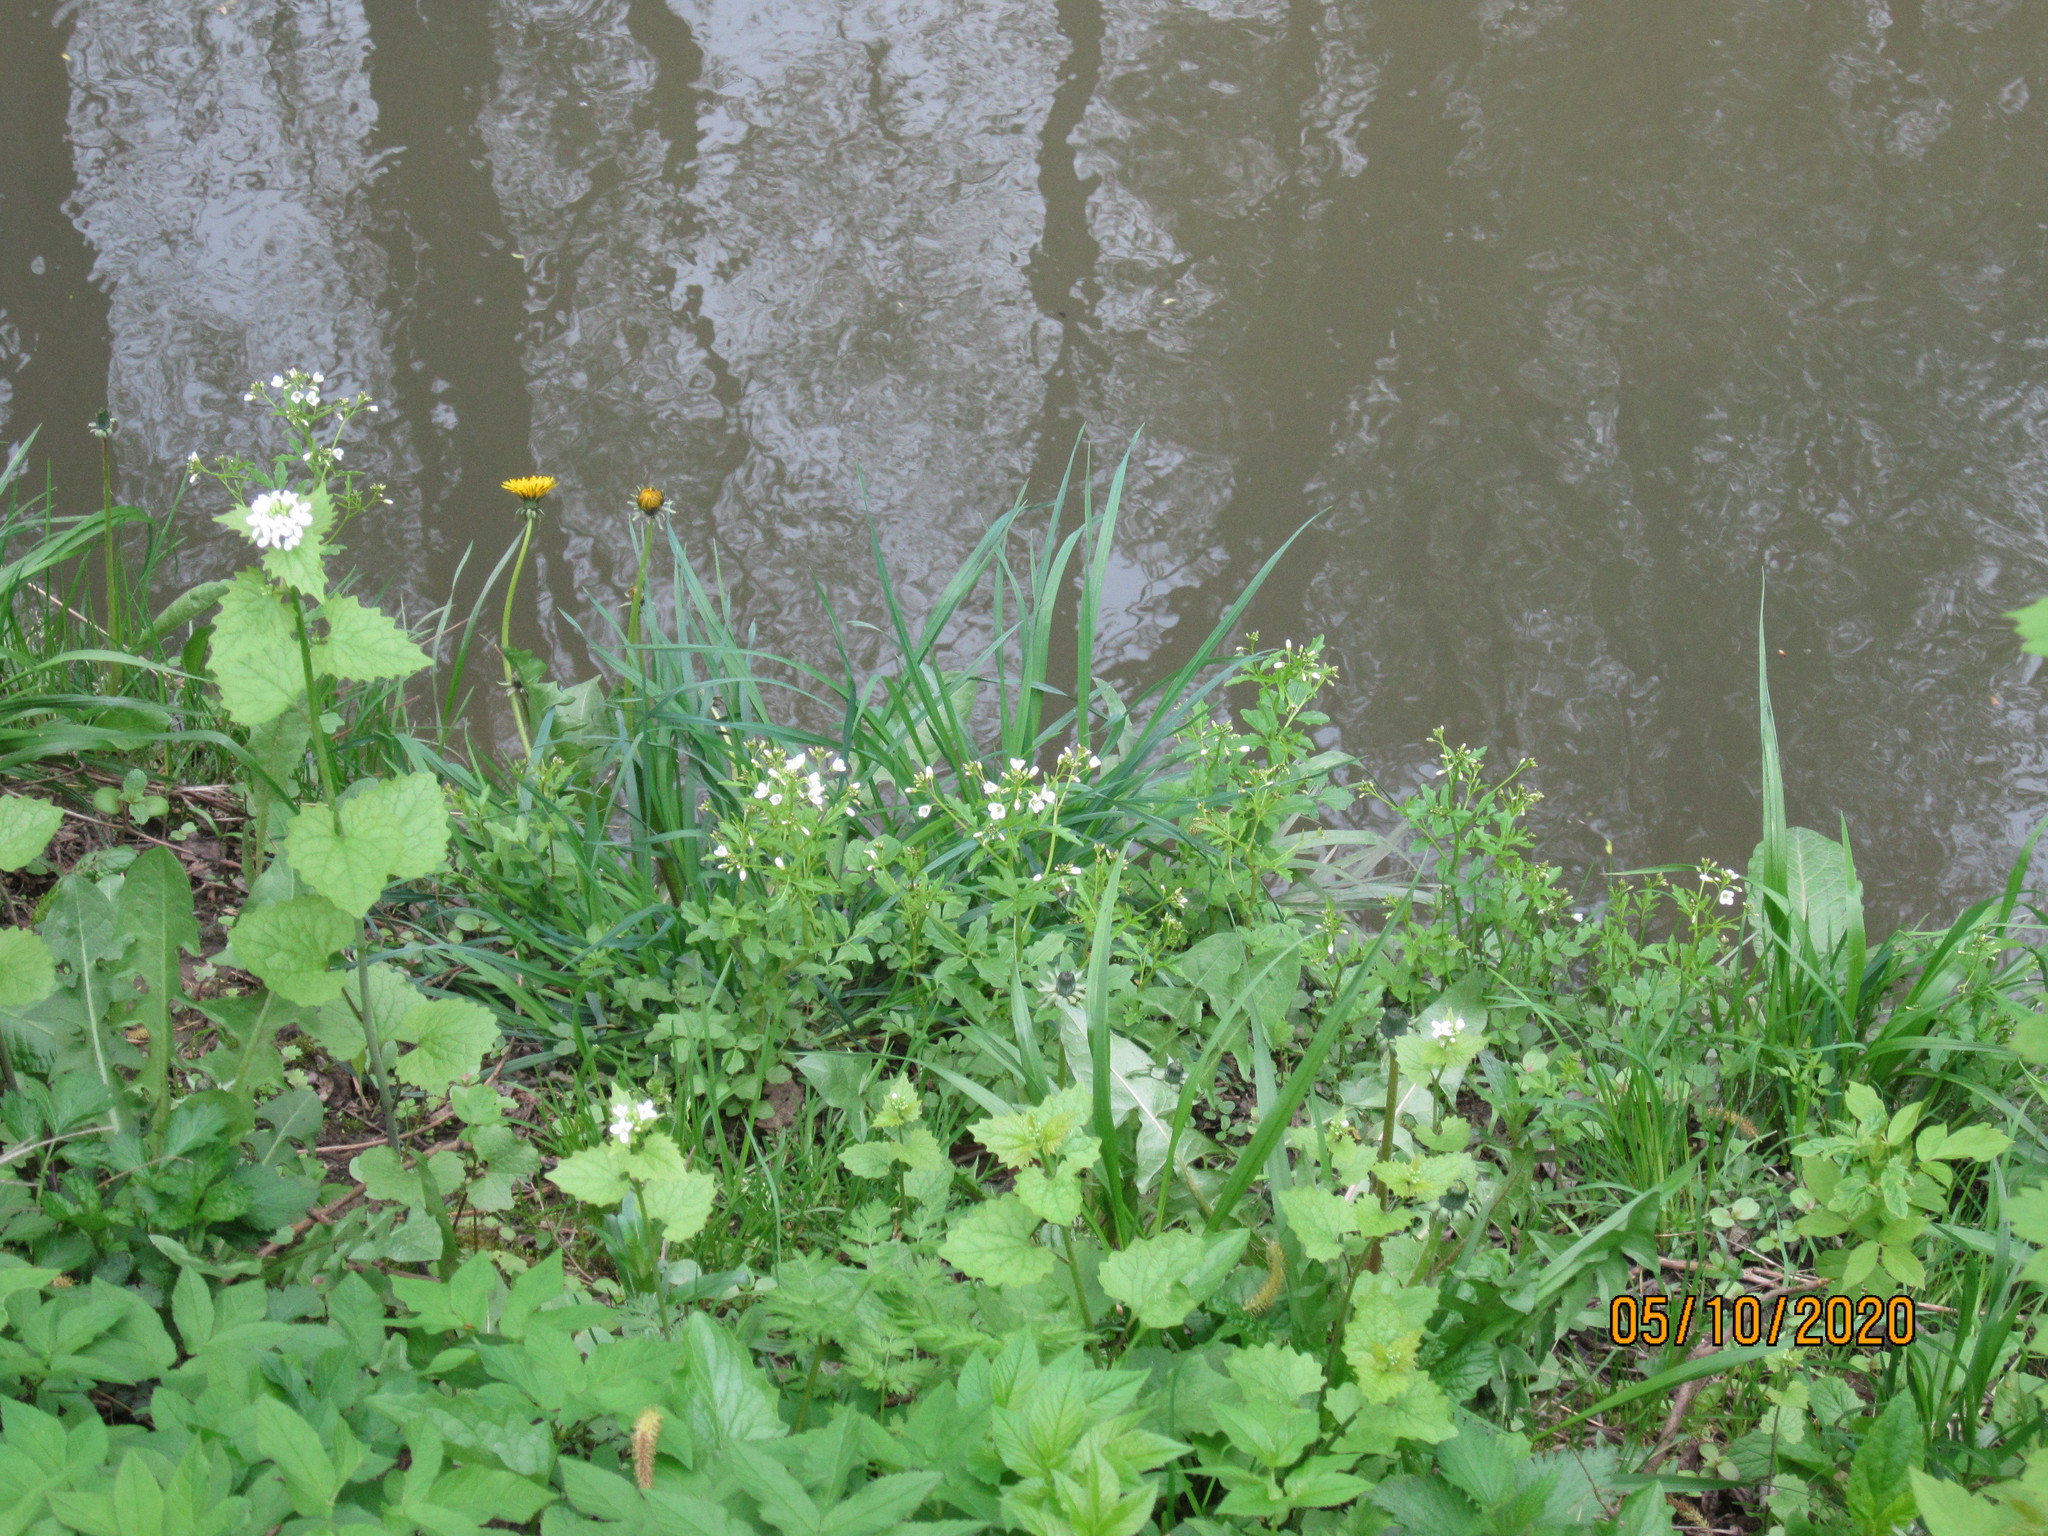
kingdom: Plantae
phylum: Tracheophyta
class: Magnoliopsida
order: Brassicales
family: Brassicaceae
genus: Cardamine
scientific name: Cardamine amara
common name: Large bitter-cress
